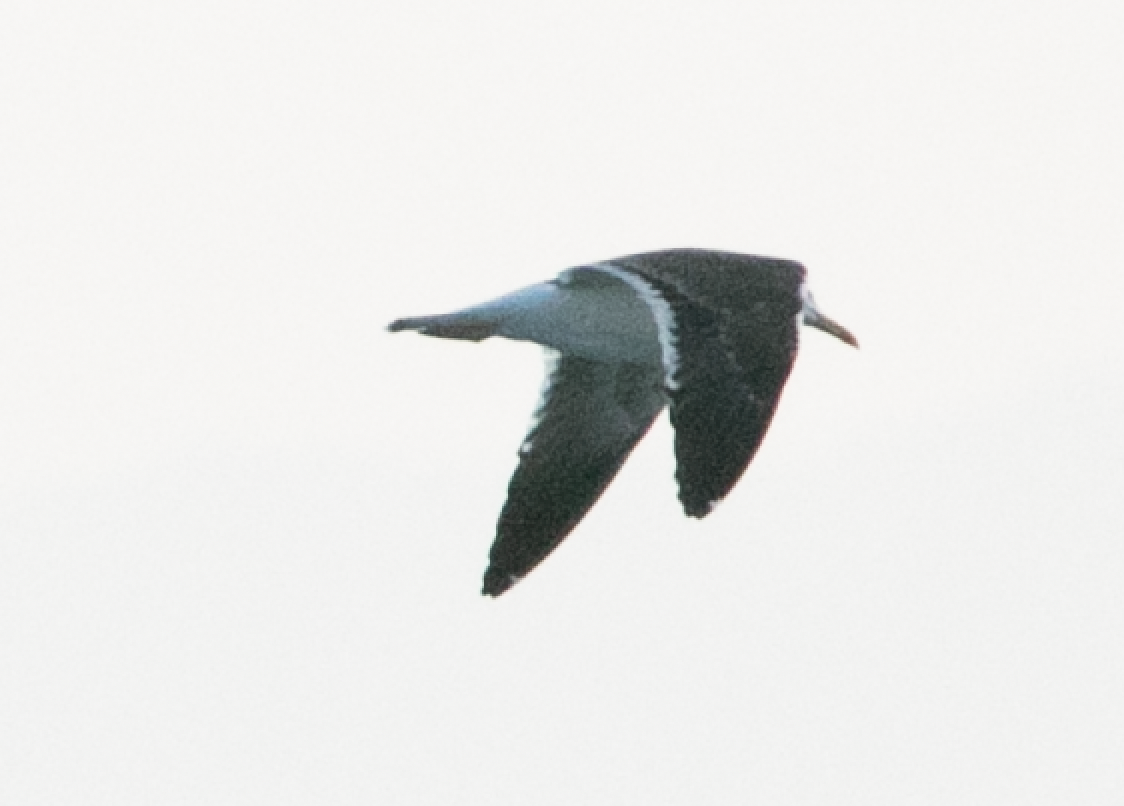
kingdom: Animalia
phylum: Chordata
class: Aves
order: Charadriiformes
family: Laridae
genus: Larus
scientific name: Larus fuscus
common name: Lesser black-backed gull
